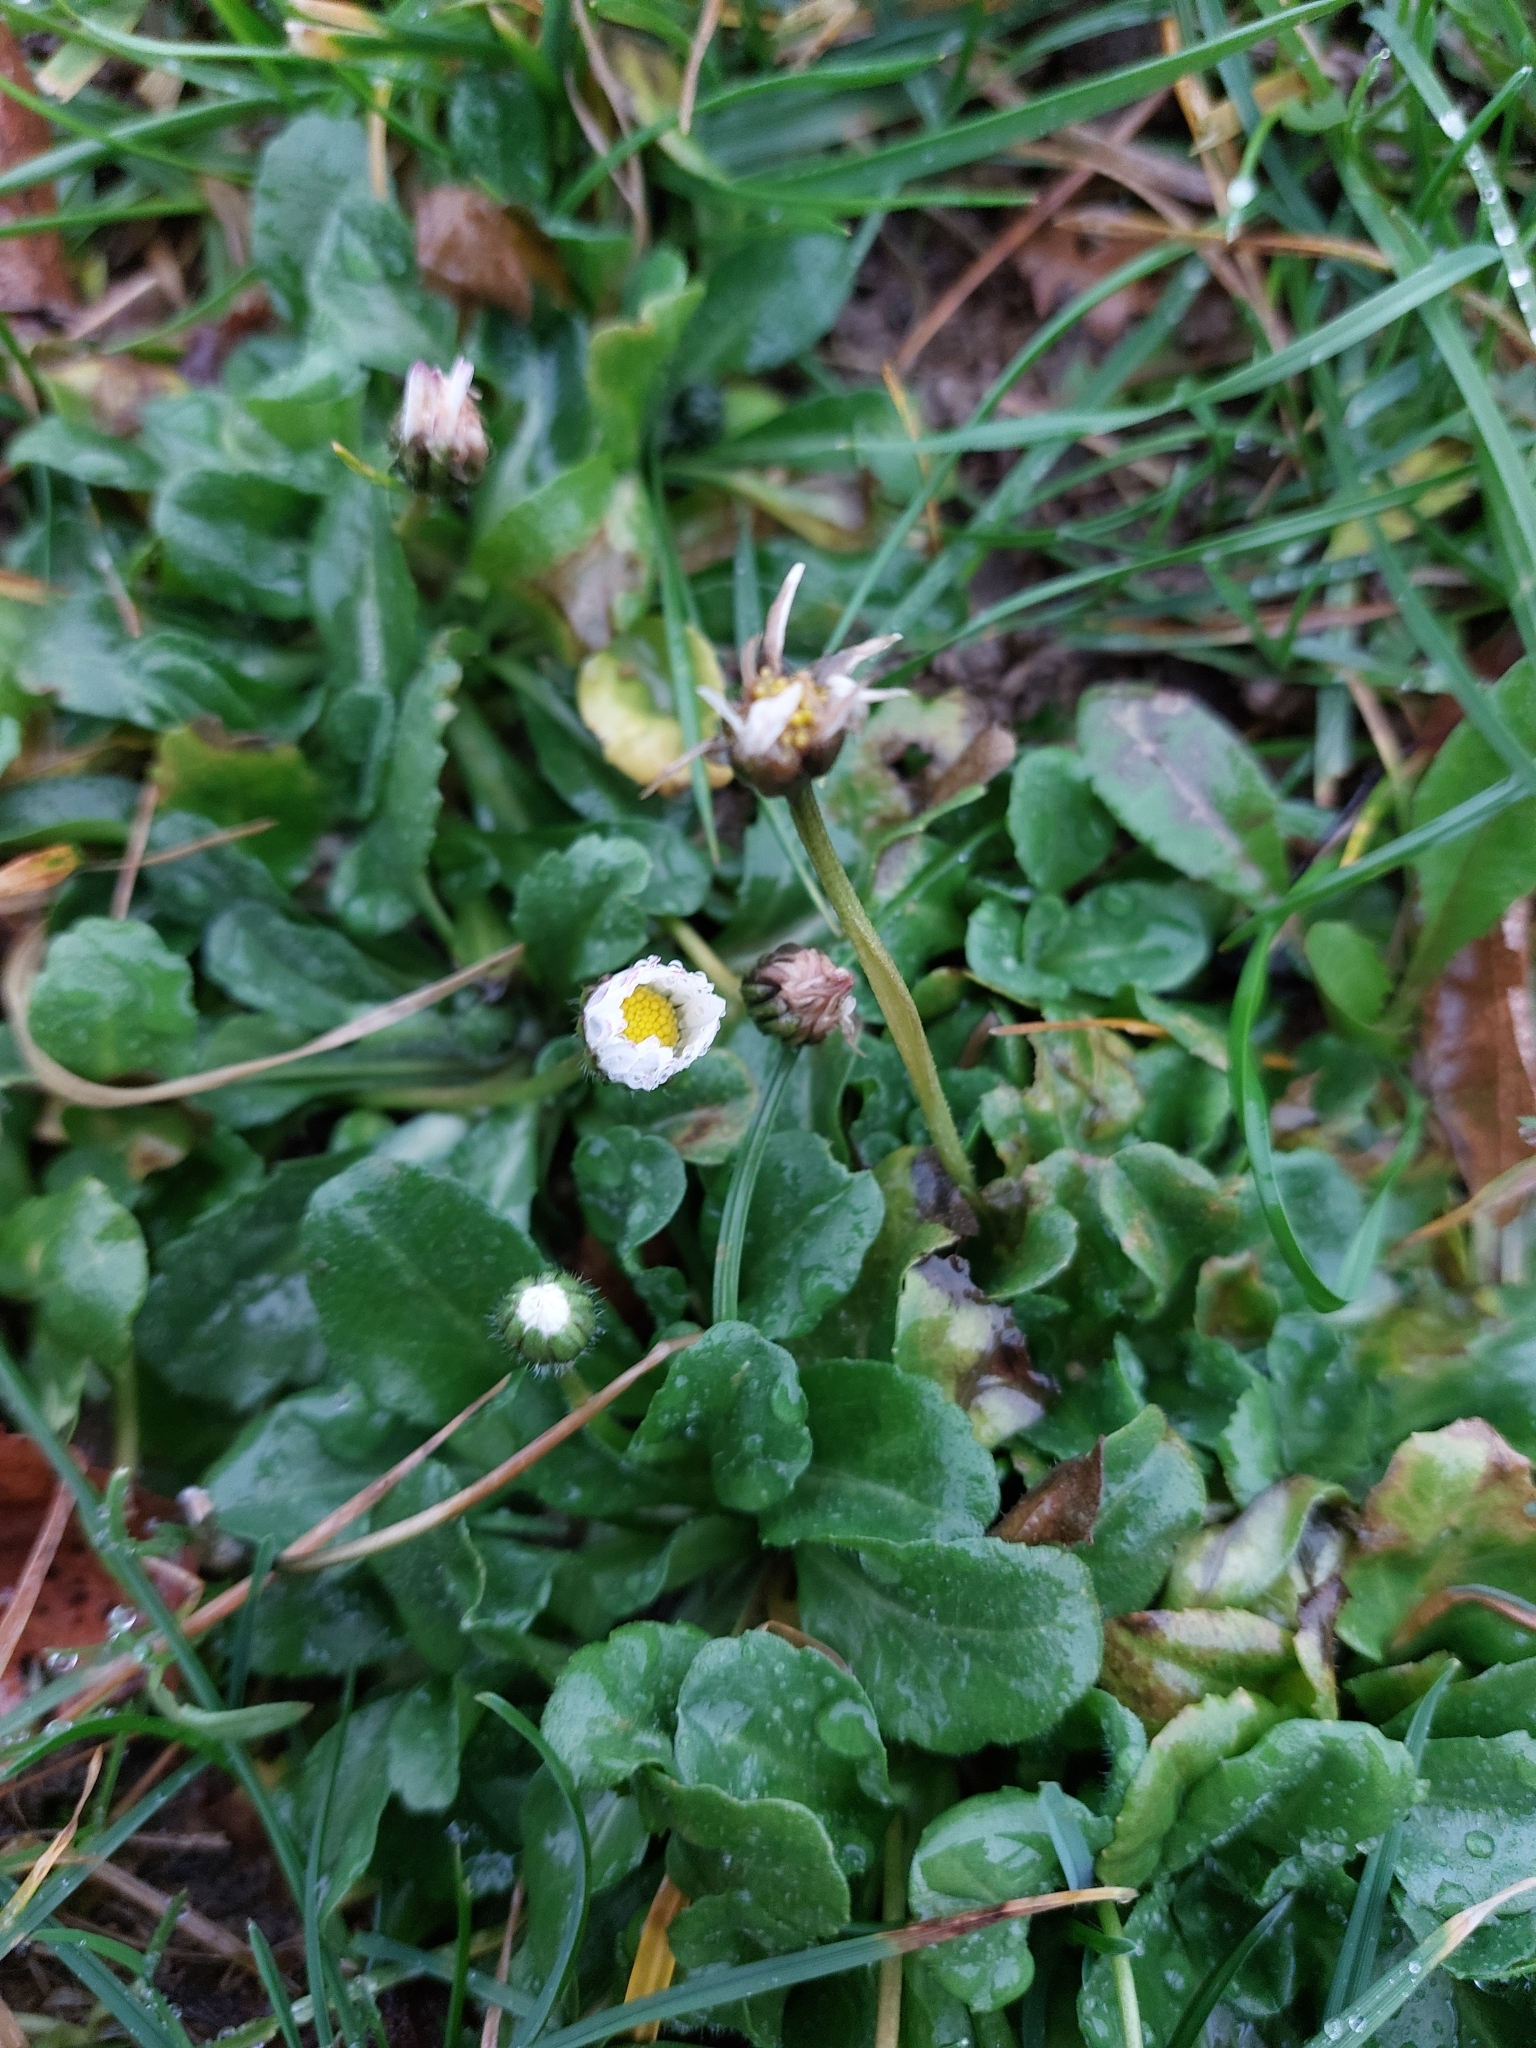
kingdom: Plantae
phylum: Tracheophyta
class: Magnoliopsida
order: Asterales
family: Asteraceae
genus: Bellis
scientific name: Bellis perennis
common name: Lawndaisy
